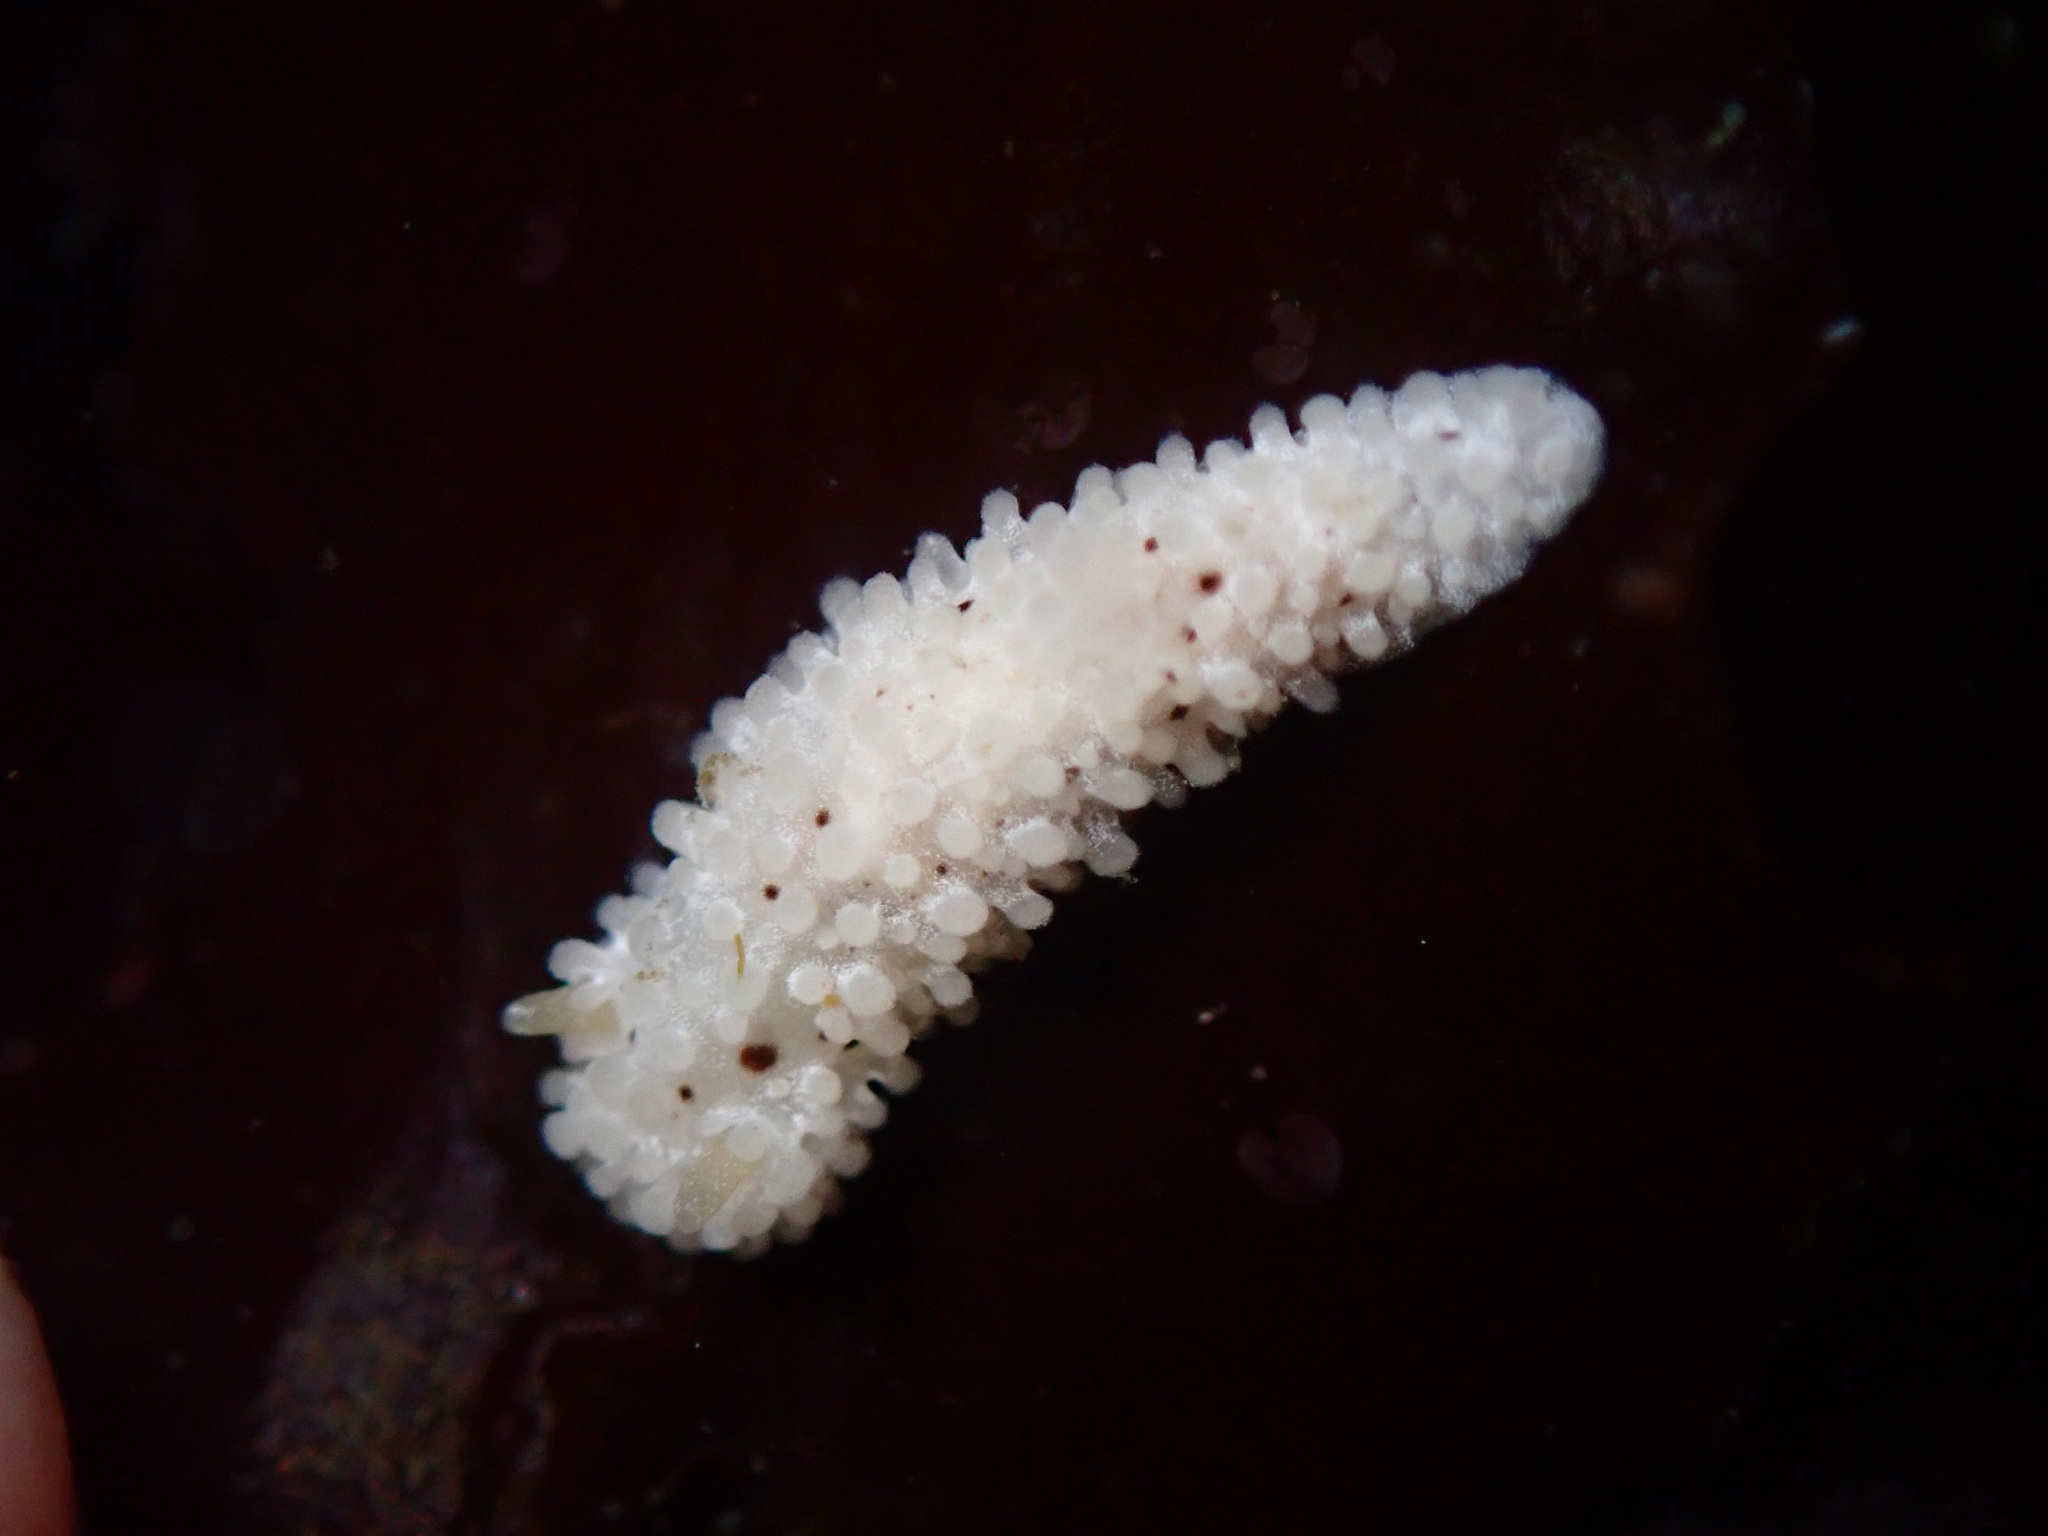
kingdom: Animalia
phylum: Mollusca
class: Gastropoda
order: Nudibranchia
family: Aegiridae
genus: Aegires
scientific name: Aegires albopunctatus
